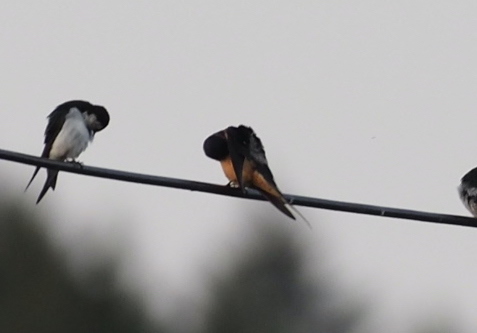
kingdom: Animalia
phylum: Chordata
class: Aves
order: Passeriformes
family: Hirundinidae
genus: Hirundo
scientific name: Hirundo rustica
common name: Barn swallow
